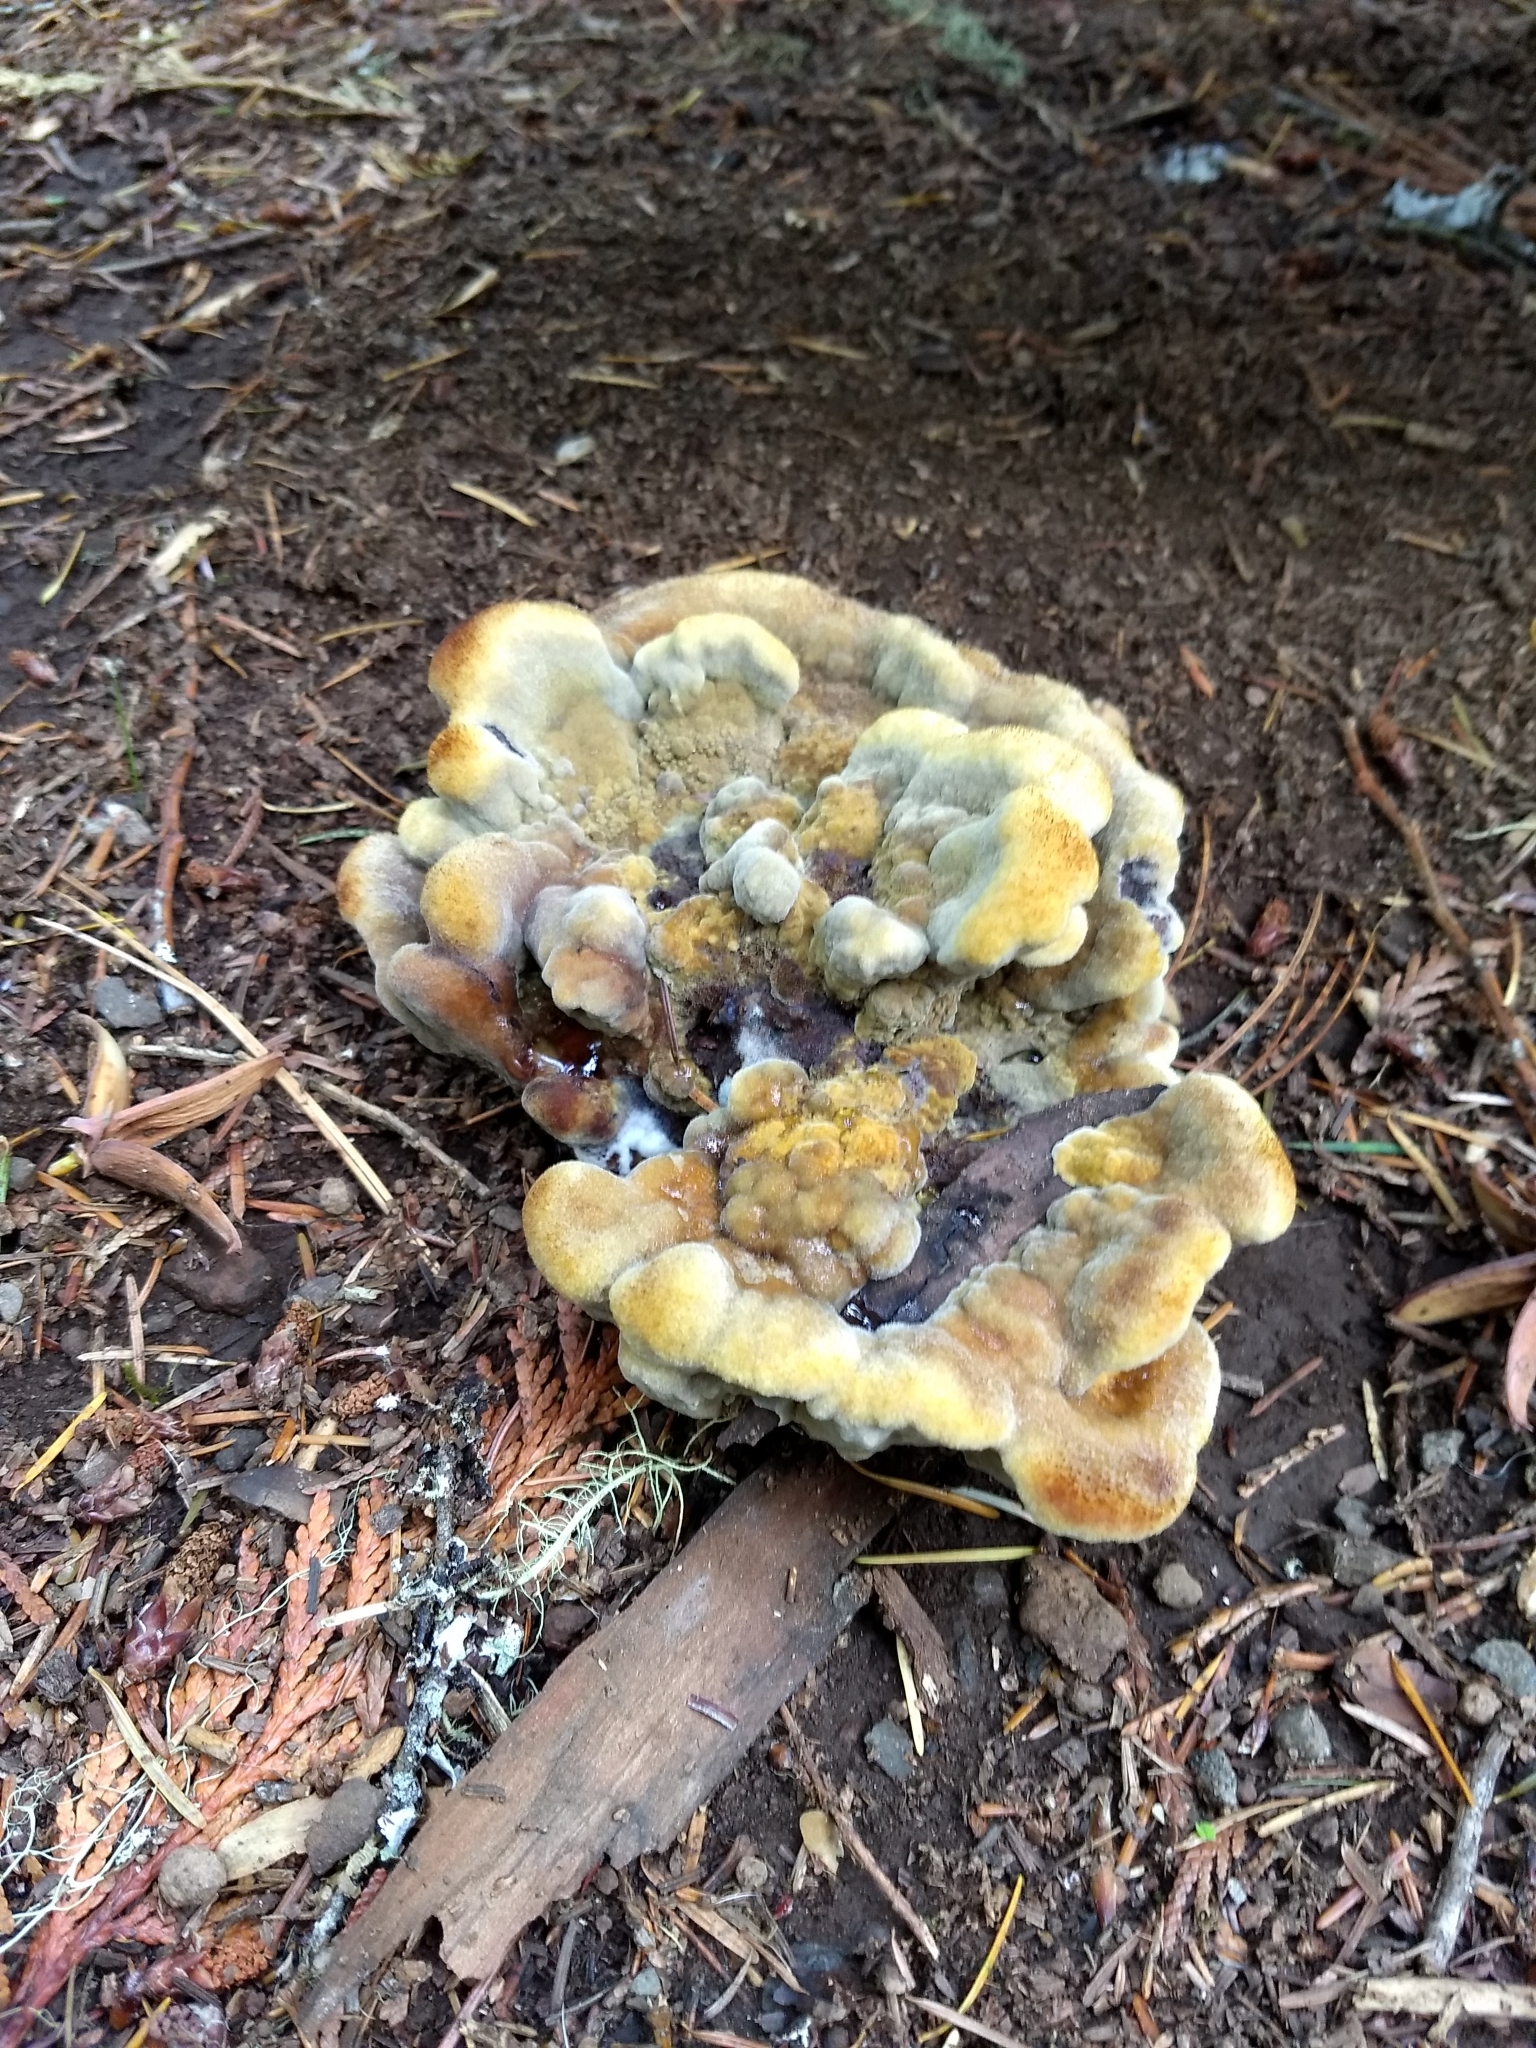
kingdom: Fungi
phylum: Basidiomycota
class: Agaricomycetes
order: Polyporales
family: Laetiporaceae
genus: Phaeolus
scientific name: Phaeolus schweinitzii
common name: Dyer's mazegill
